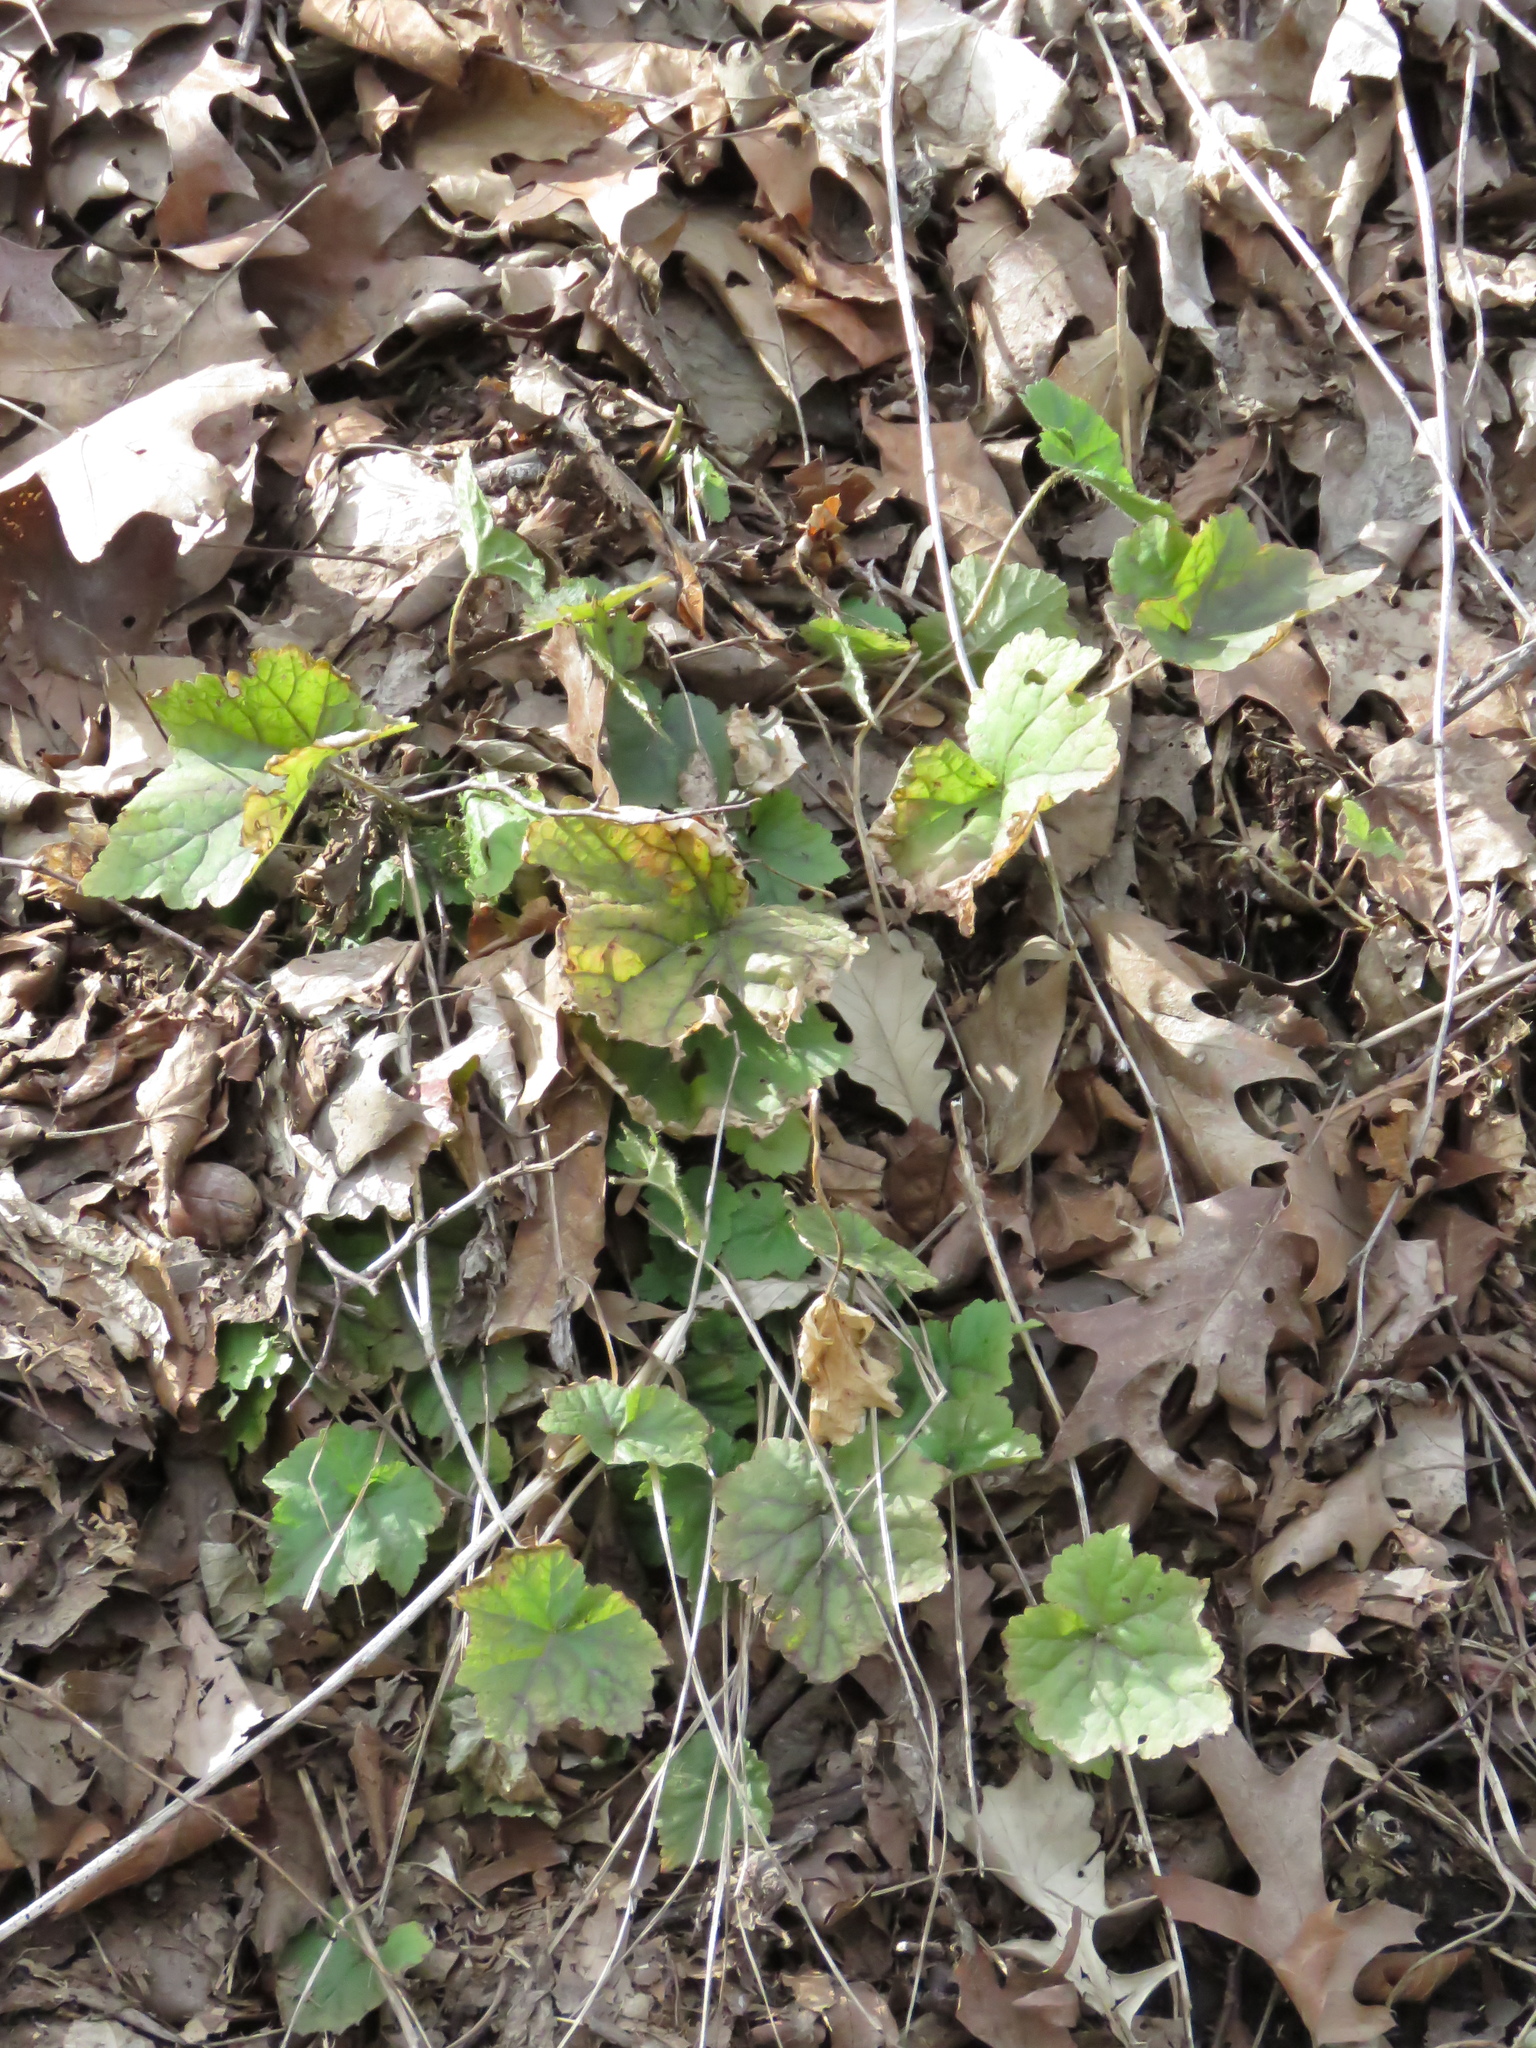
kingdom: Plantae
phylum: Tracheophyta
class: Magnoliopsida
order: Saxifragales
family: Saxifragaceae
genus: Mitella
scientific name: Mitella diphylla
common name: Coolwort
